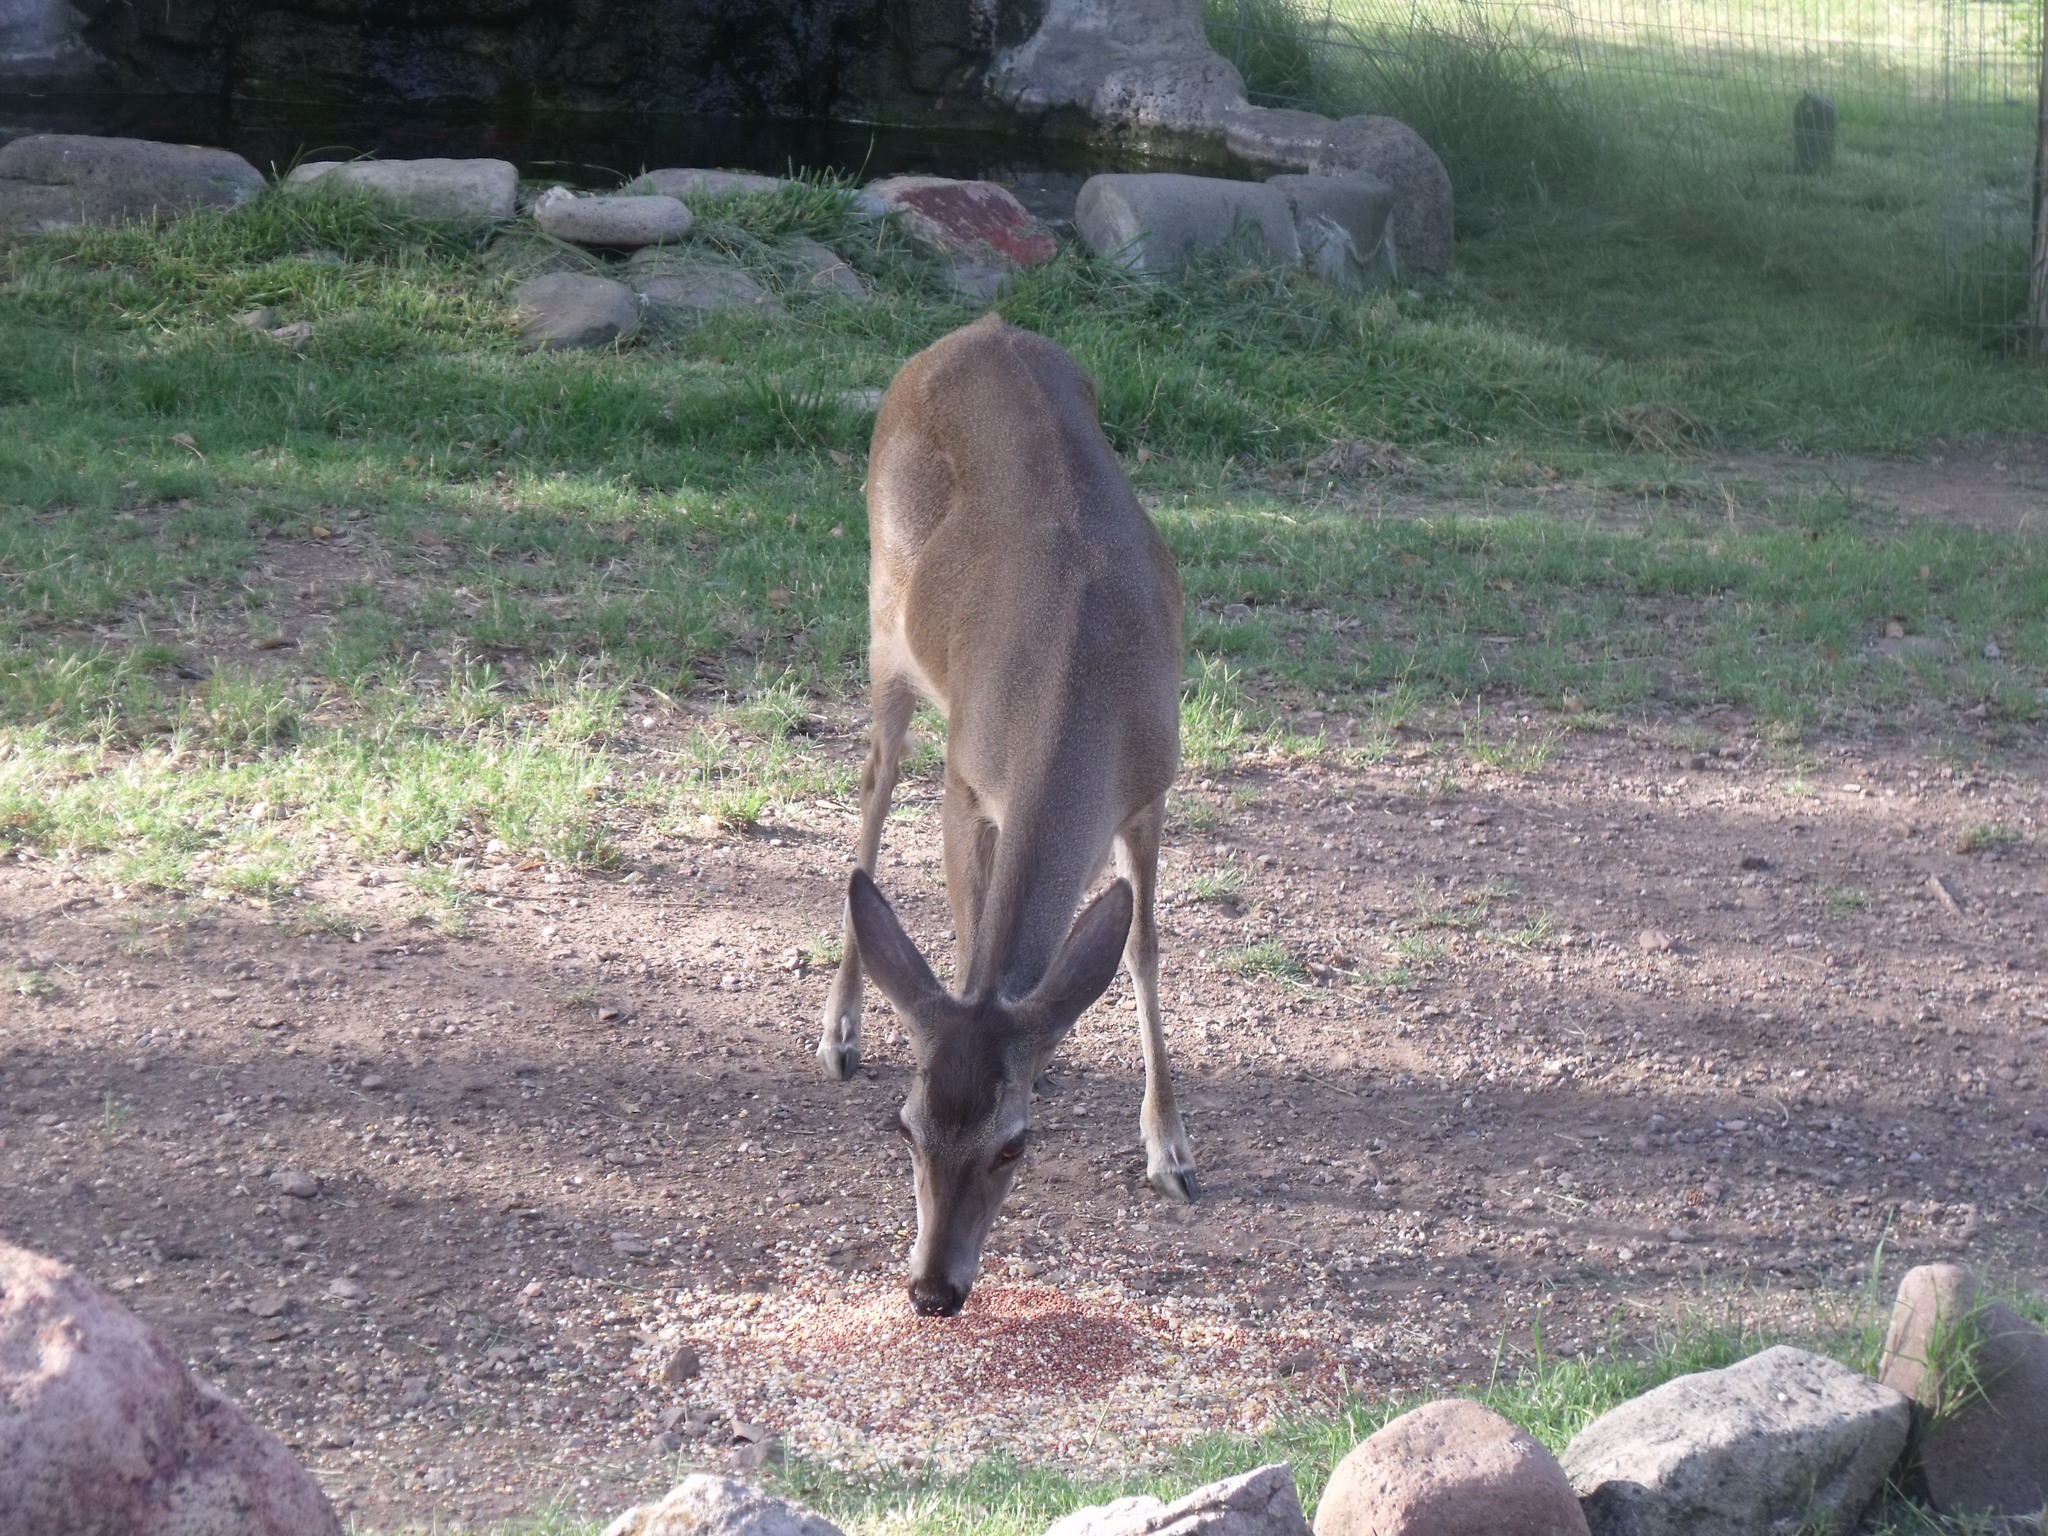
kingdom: Animalia
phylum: Chordata
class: Mammalia
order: Artiodactyla
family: Cervidae
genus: Odocoileus
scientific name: Odocoileus virginianus
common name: White-tailed deer
